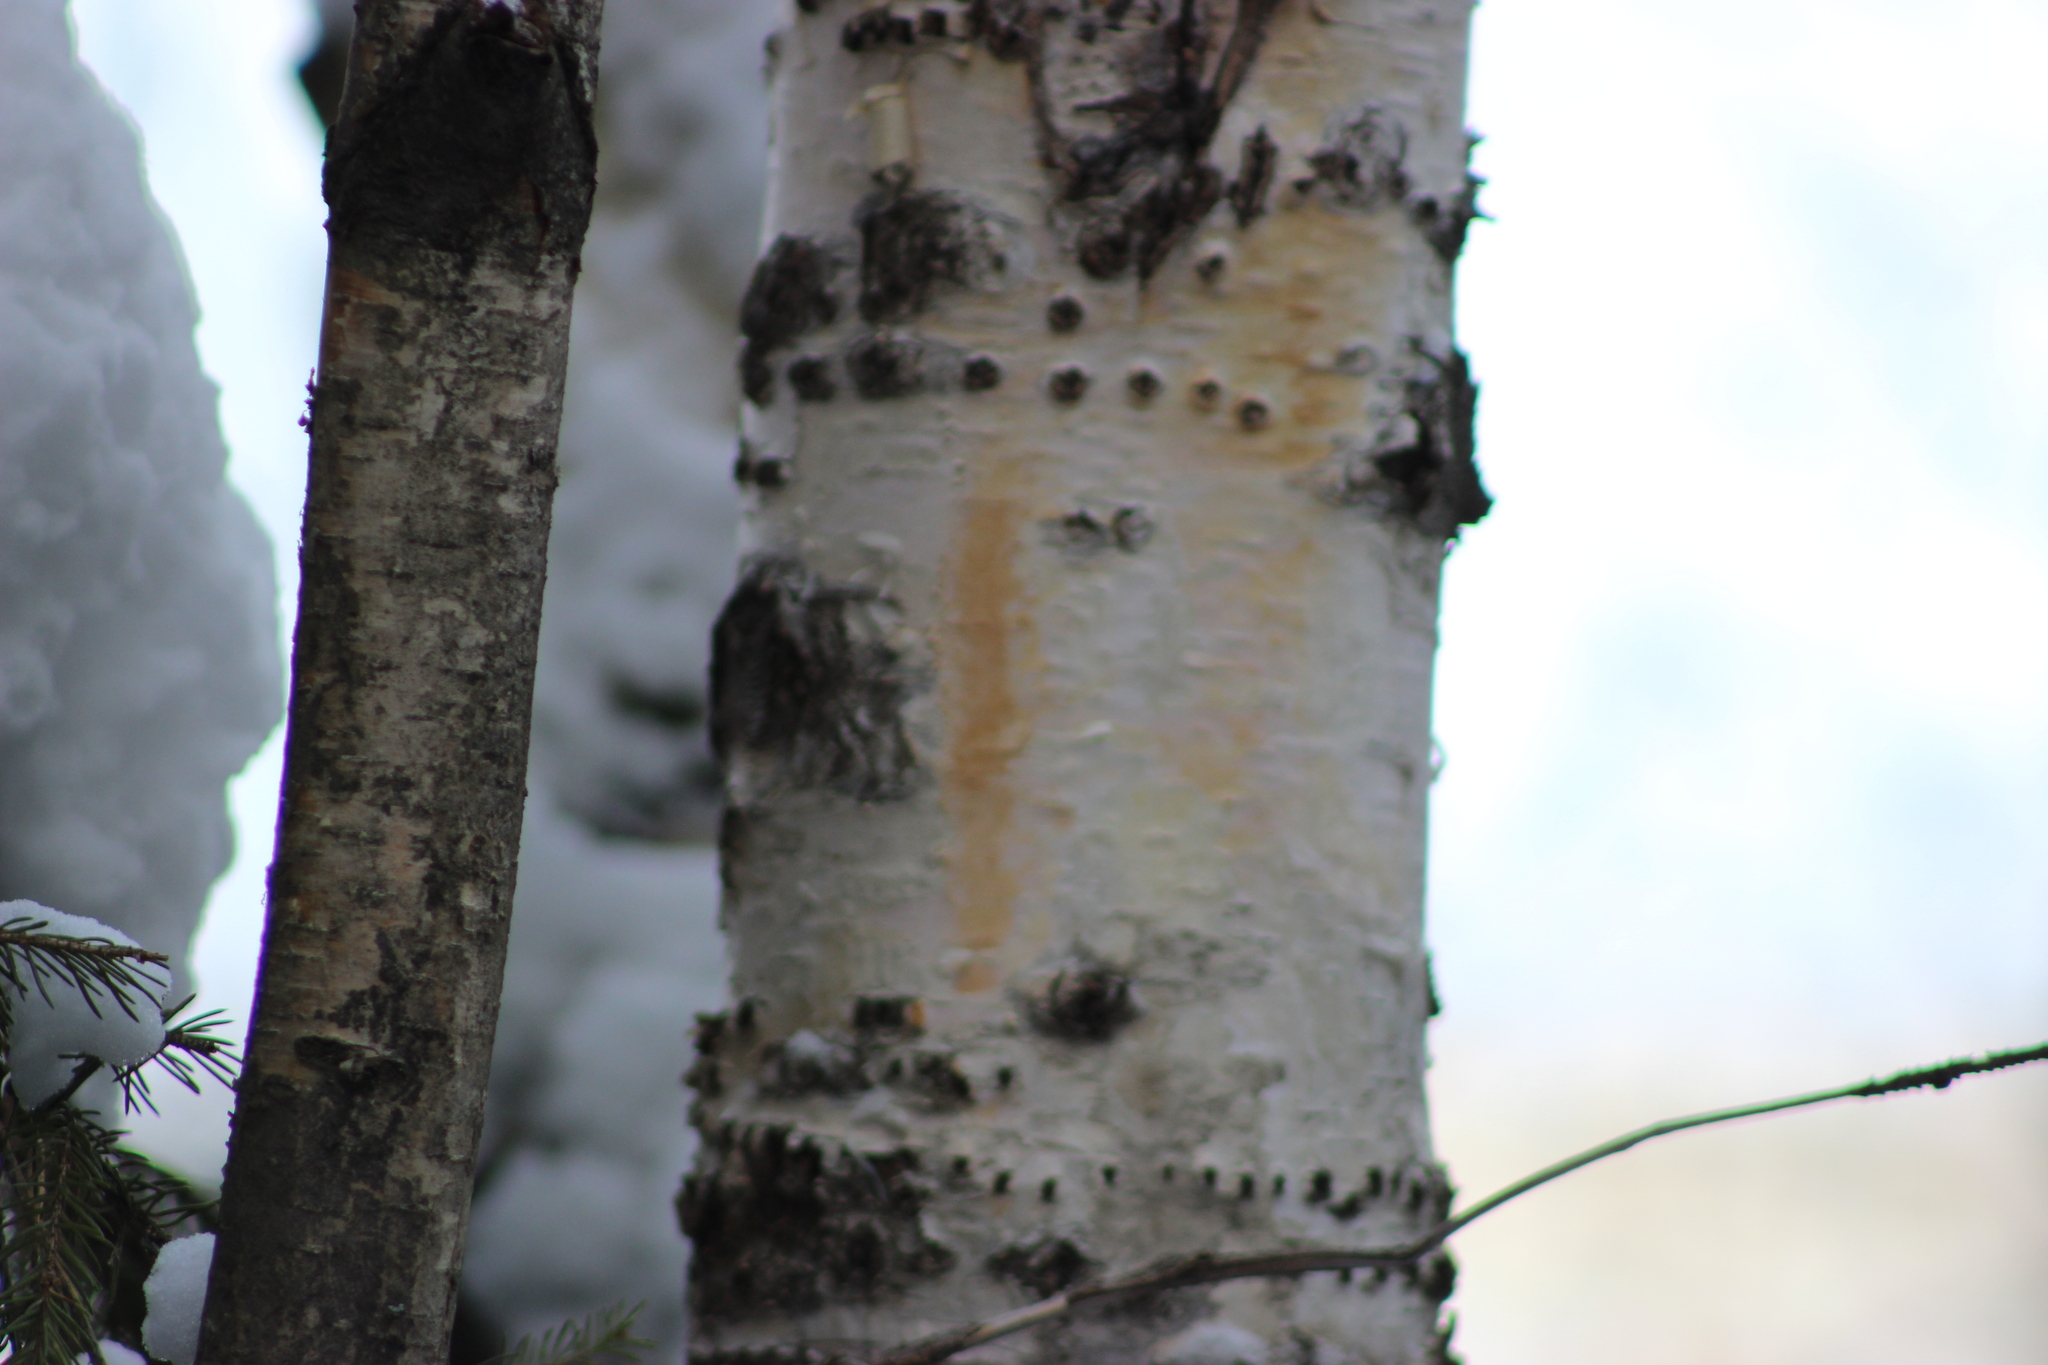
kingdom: Animalia
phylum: Chordata
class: Aves
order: Piciformes
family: Picidae
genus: Dendrocopos
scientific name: Dendrocopos major
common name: Great spotted woodpecker
